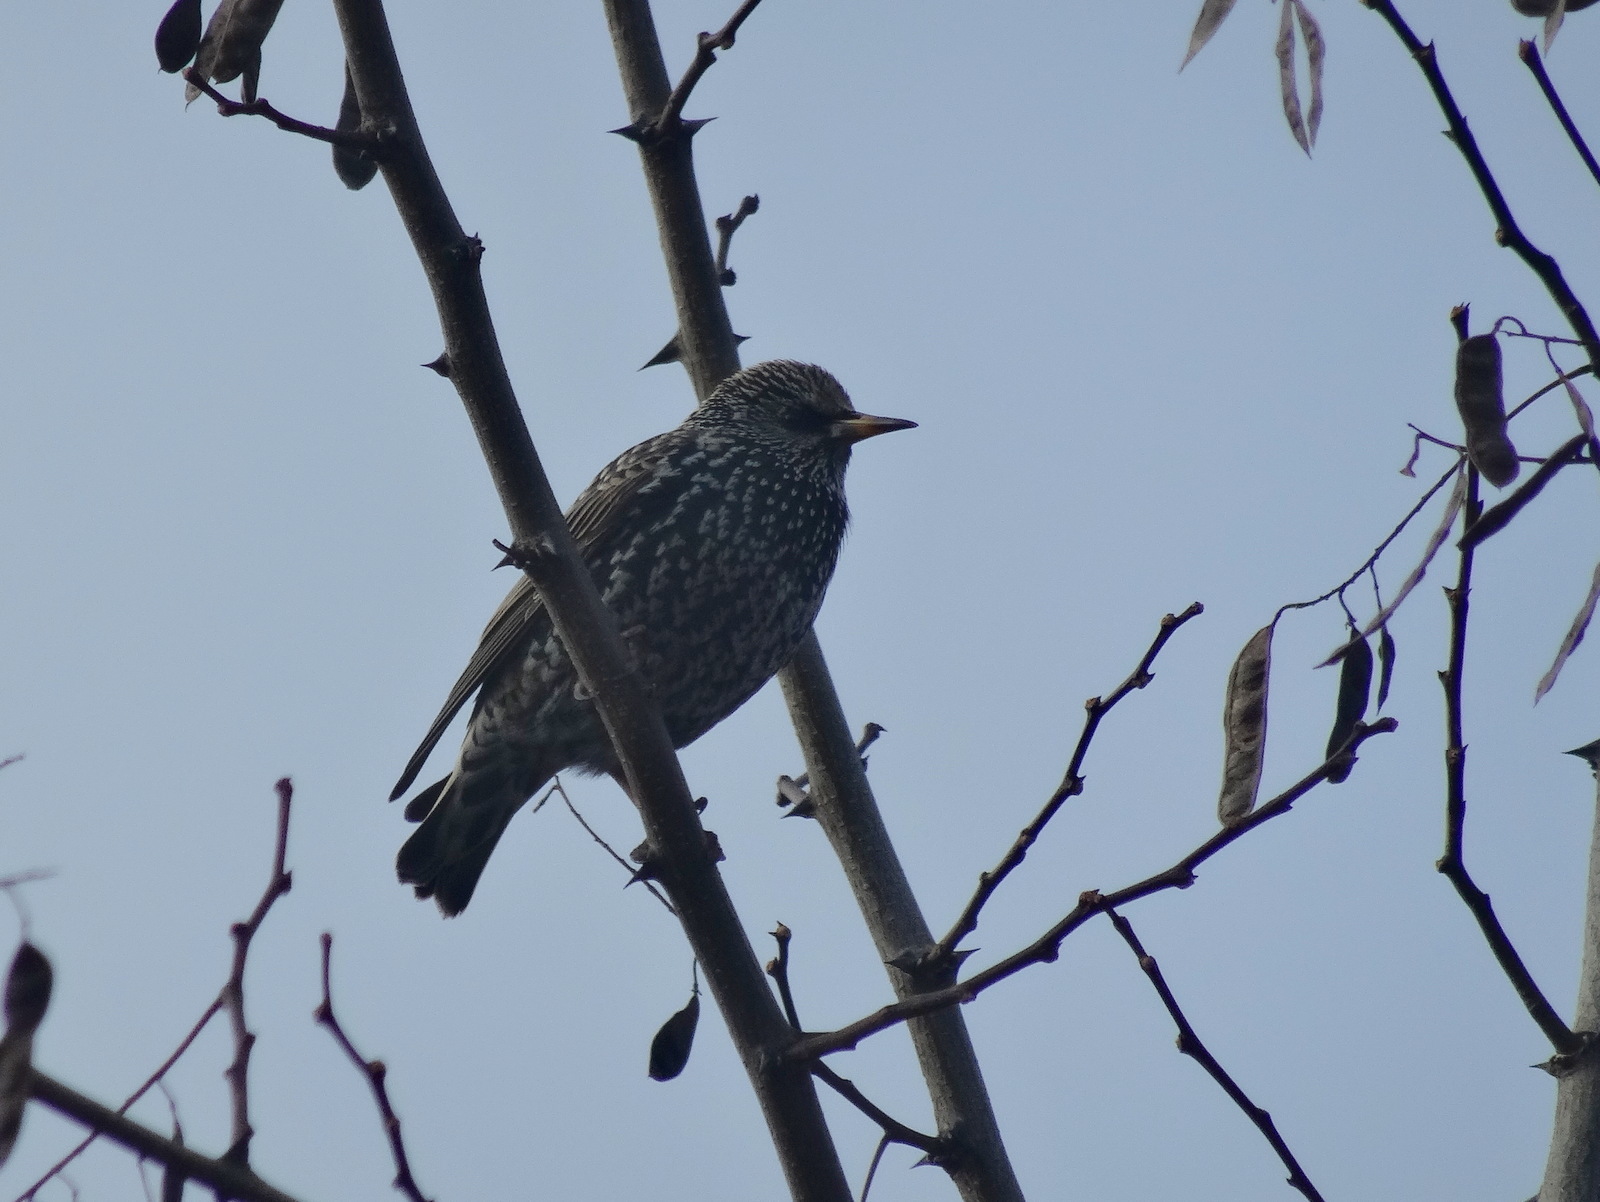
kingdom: Animalia
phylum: Chordata
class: Aves
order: Passeriformes
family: Sturnidae
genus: Sturnus
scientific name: Sturnus vulgaris
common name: Common starling
